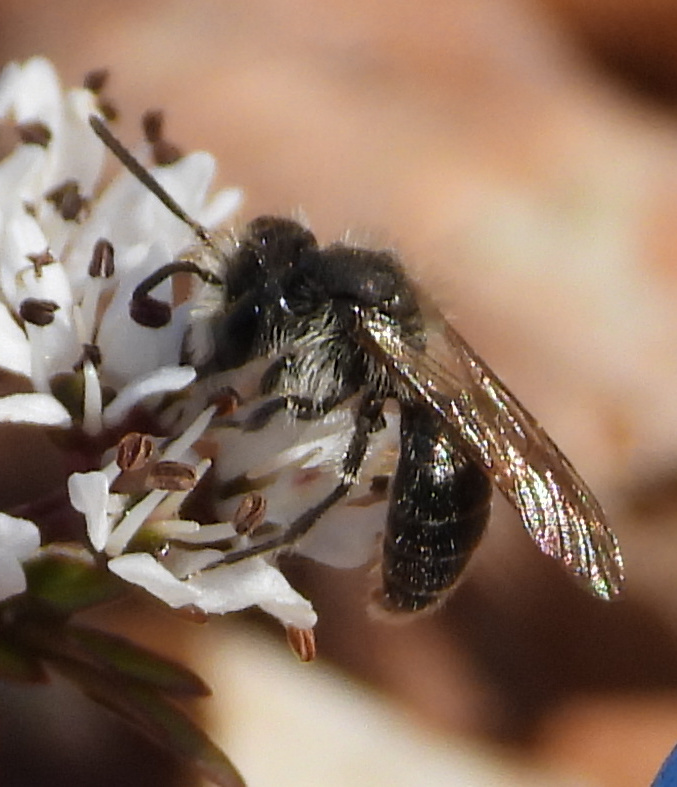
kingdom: Animalia
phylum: Arthropoda
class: Insecta
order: Hymenoptera
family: Andrenidae
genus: Andrena
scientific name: Andrena
